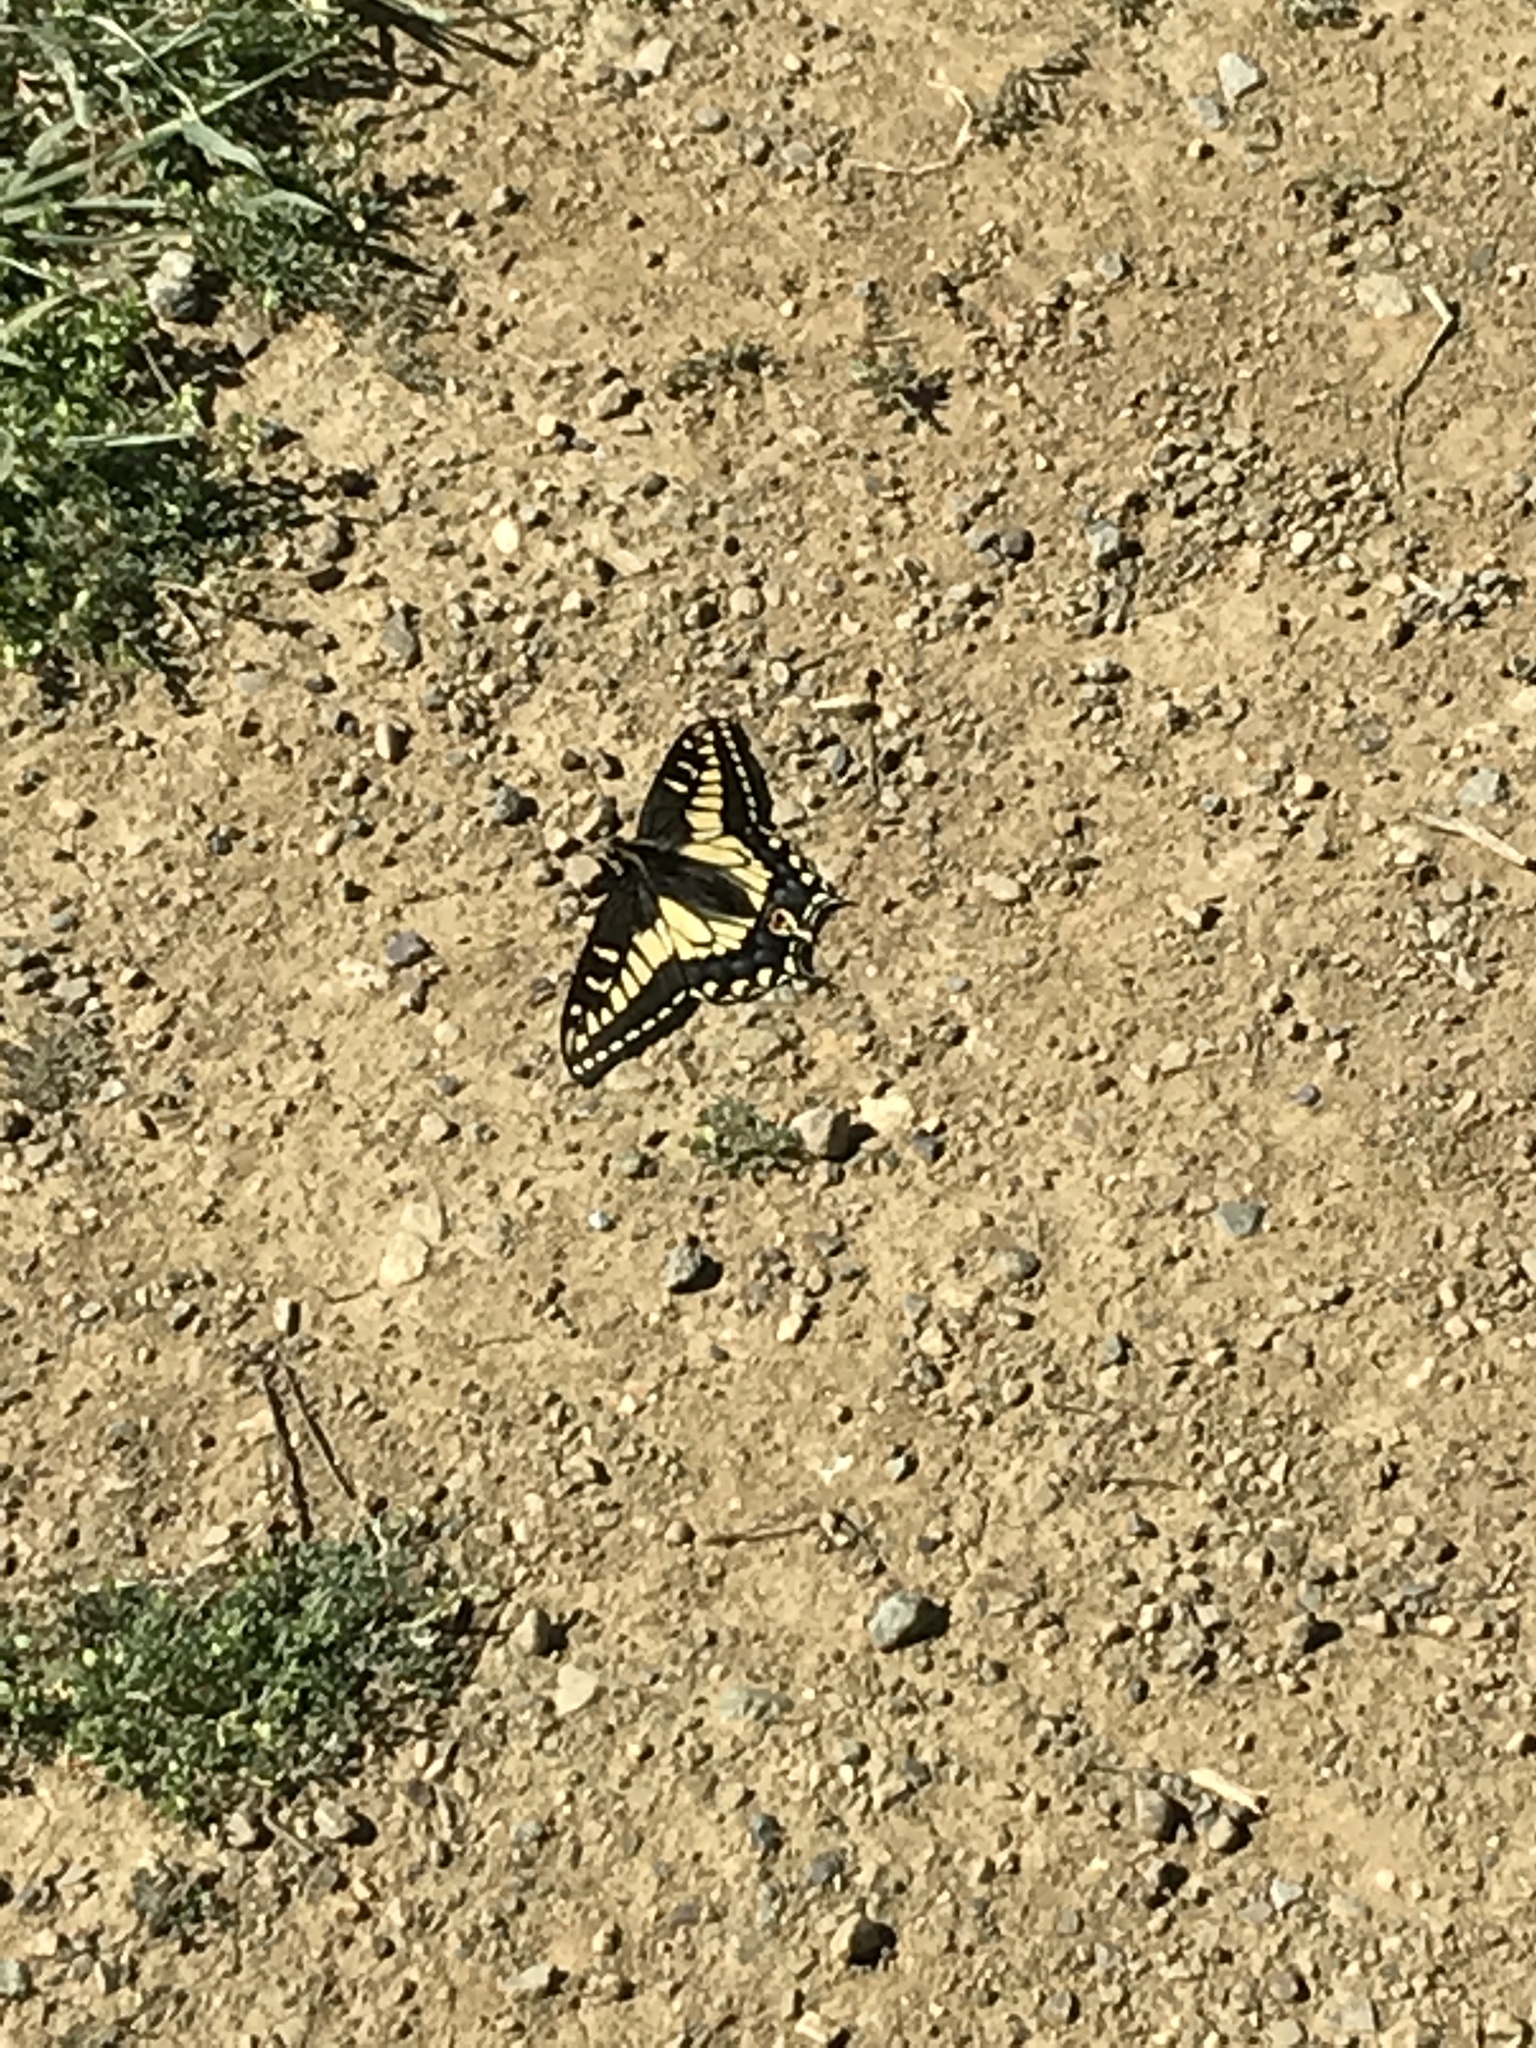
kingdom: Animalia
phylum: Arthropoda
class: Insecta
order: Lepidoptera
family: Papilionidae
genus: Papilio
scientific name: Papilio zelicaon
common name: Anise swallowtail
